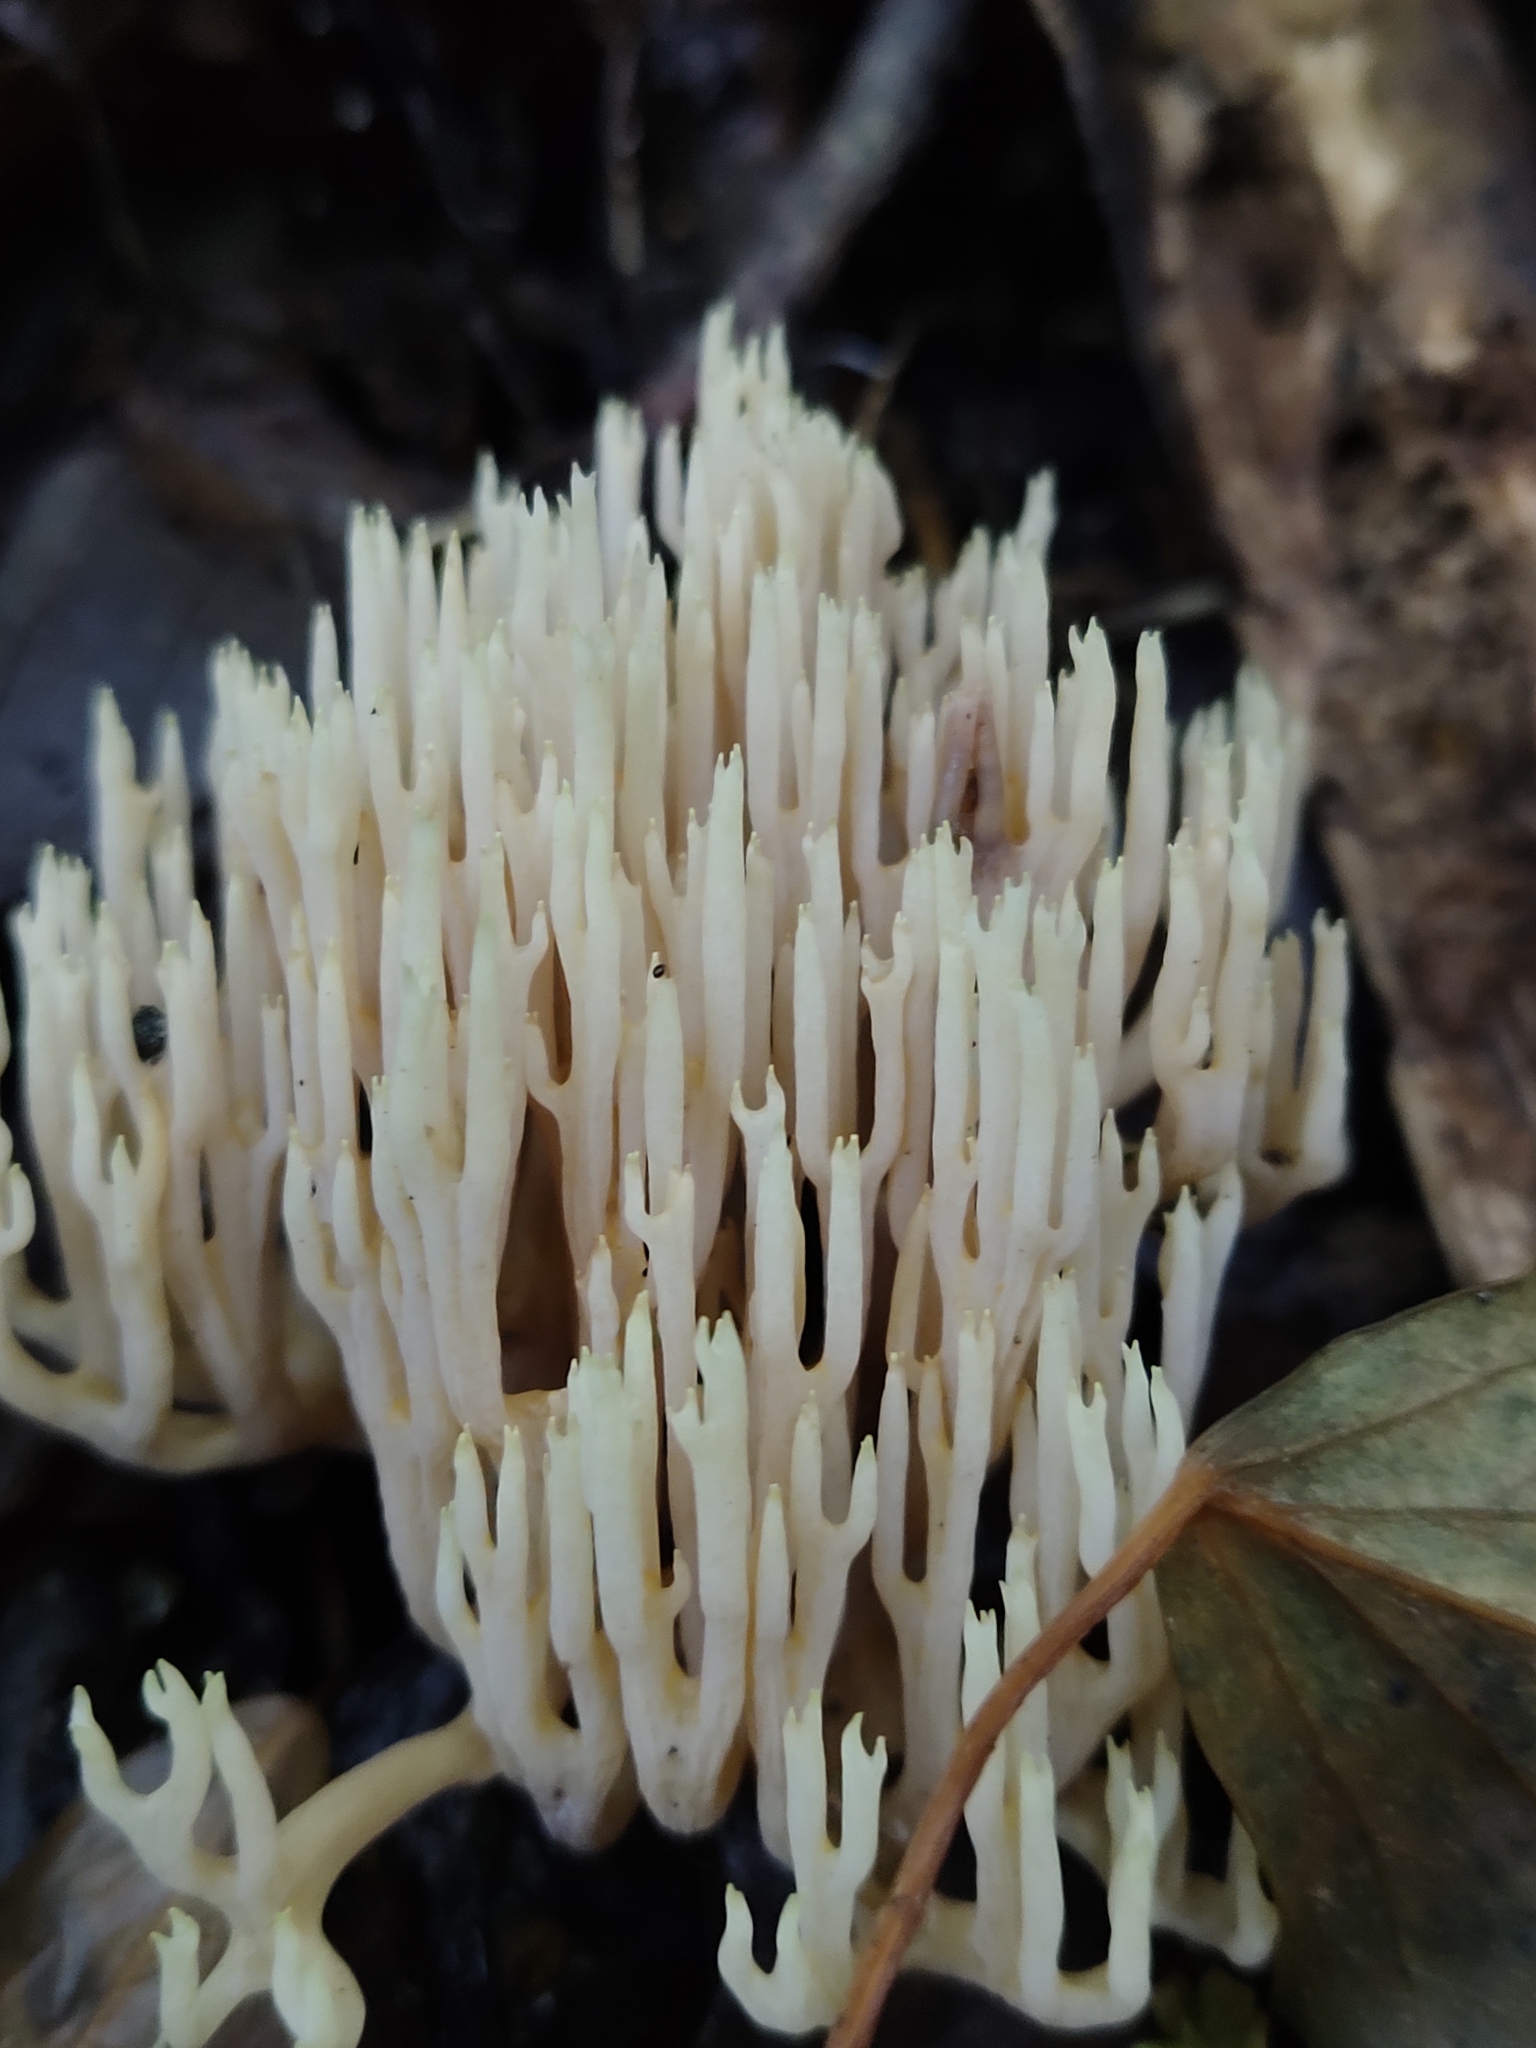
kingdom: Fungi
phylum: Basidiomycota
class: Agaricomycetes
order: Gomphales
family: Gomphaceae
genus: Ramaria
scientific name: Ramaria stricta
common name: Upright coral
